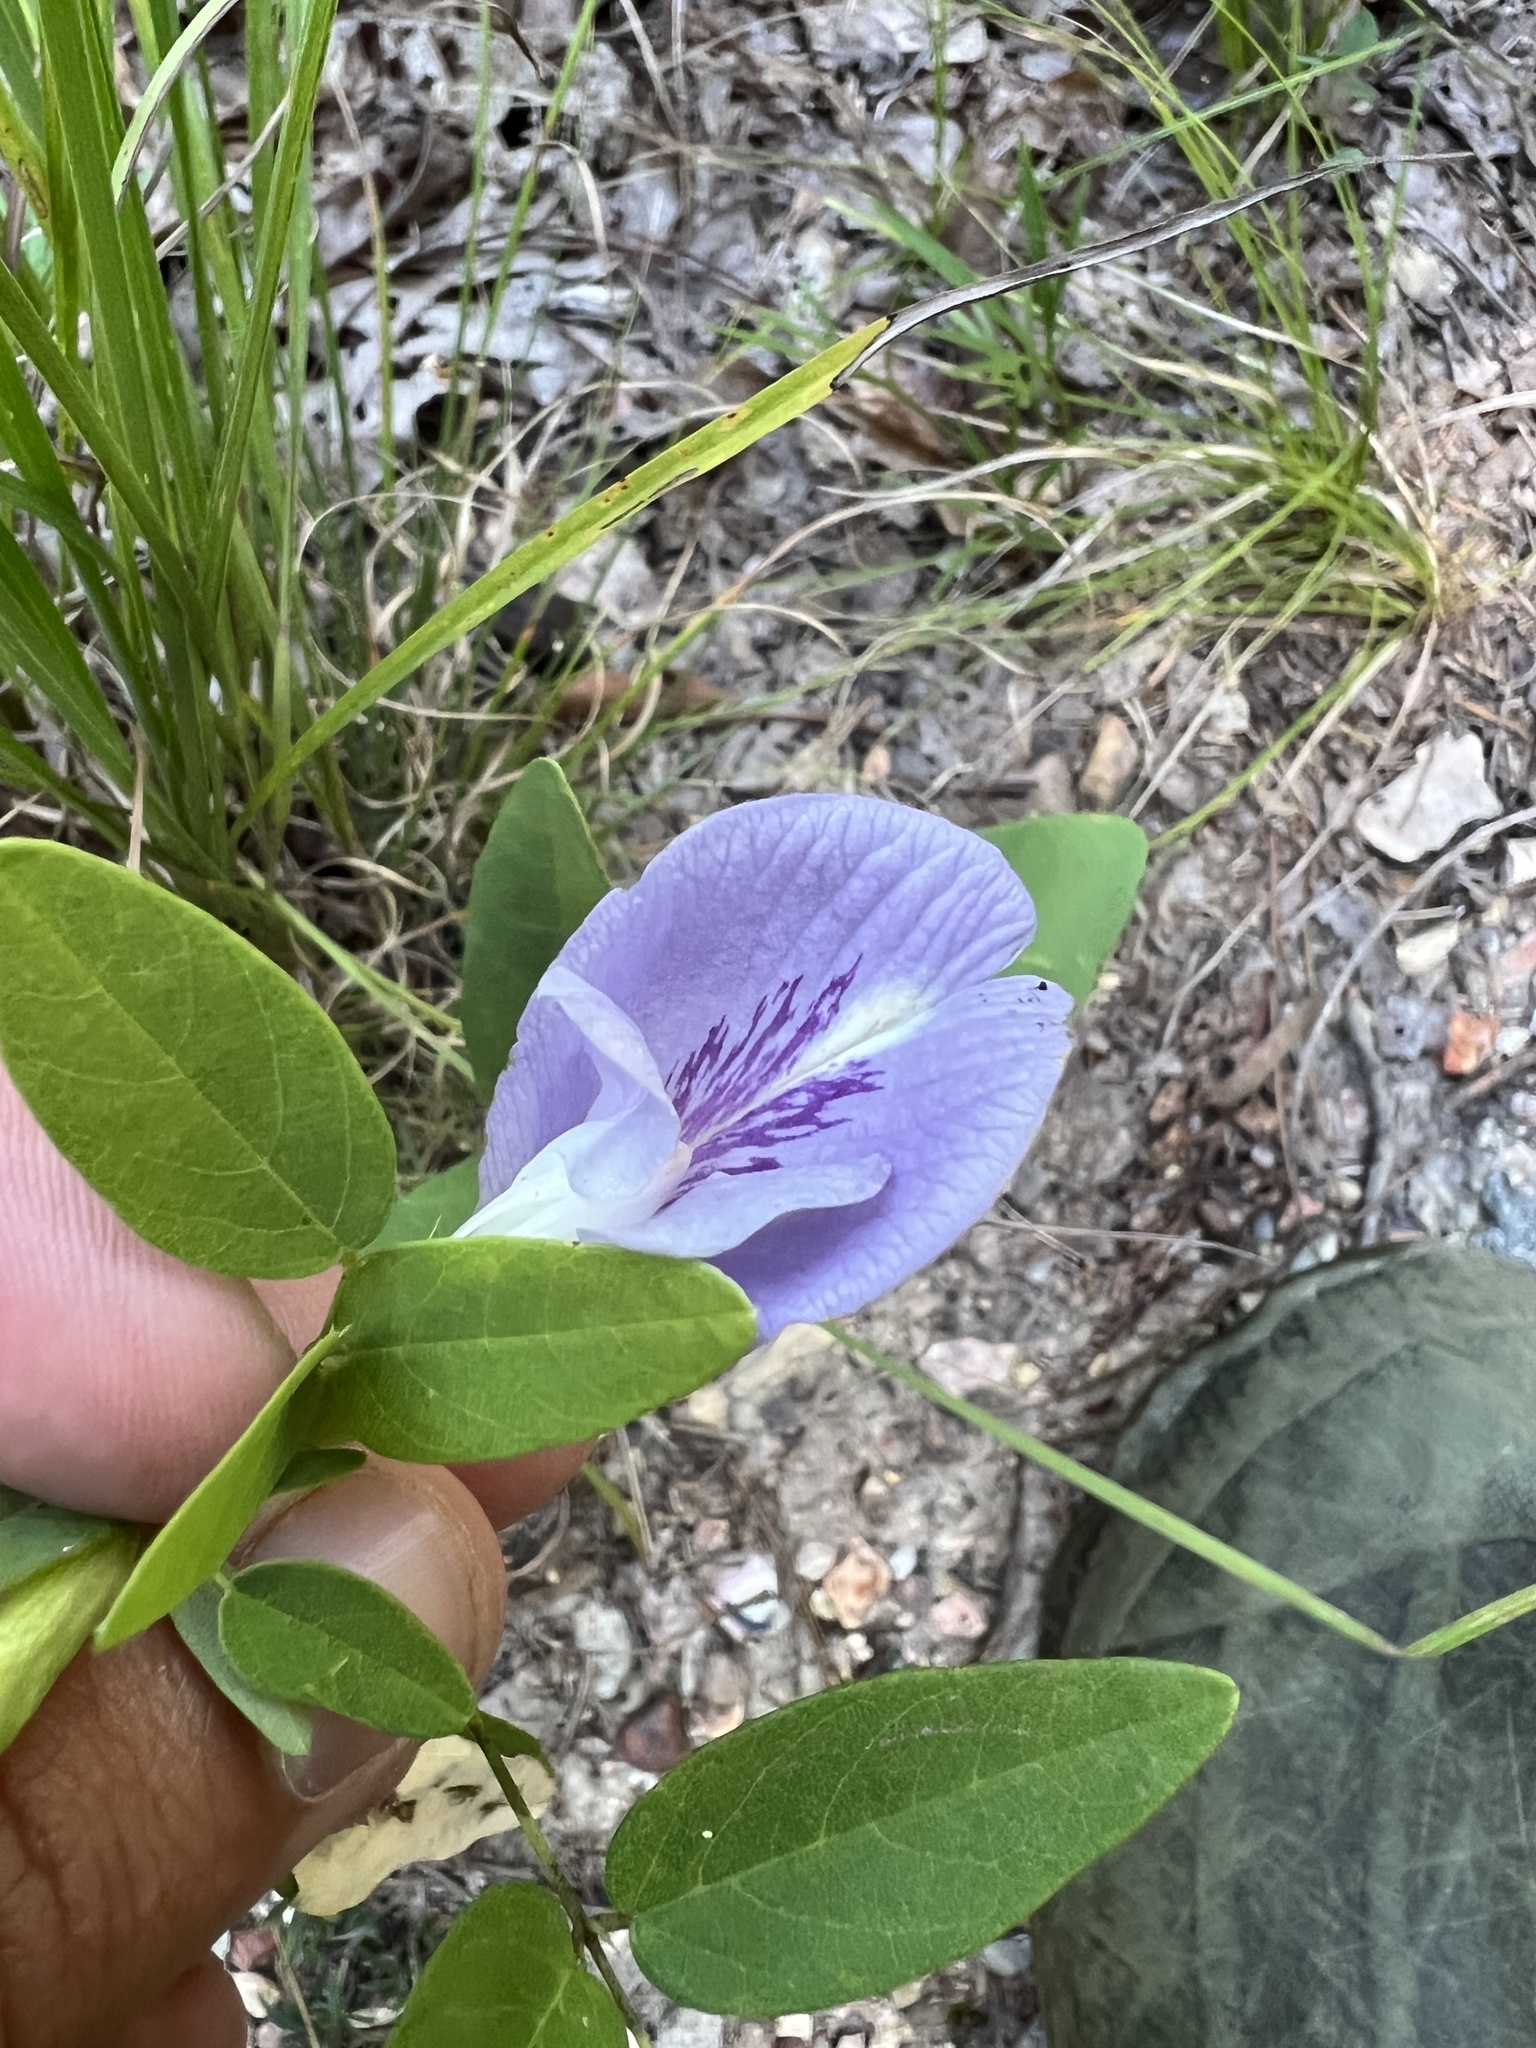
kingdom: Plantae
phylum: Tracheophyta
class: Magnoliopsida
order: Fabales
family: Fabaceae
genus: Clitoria
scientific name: Clitoria mariana
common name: Butterfly-pea
